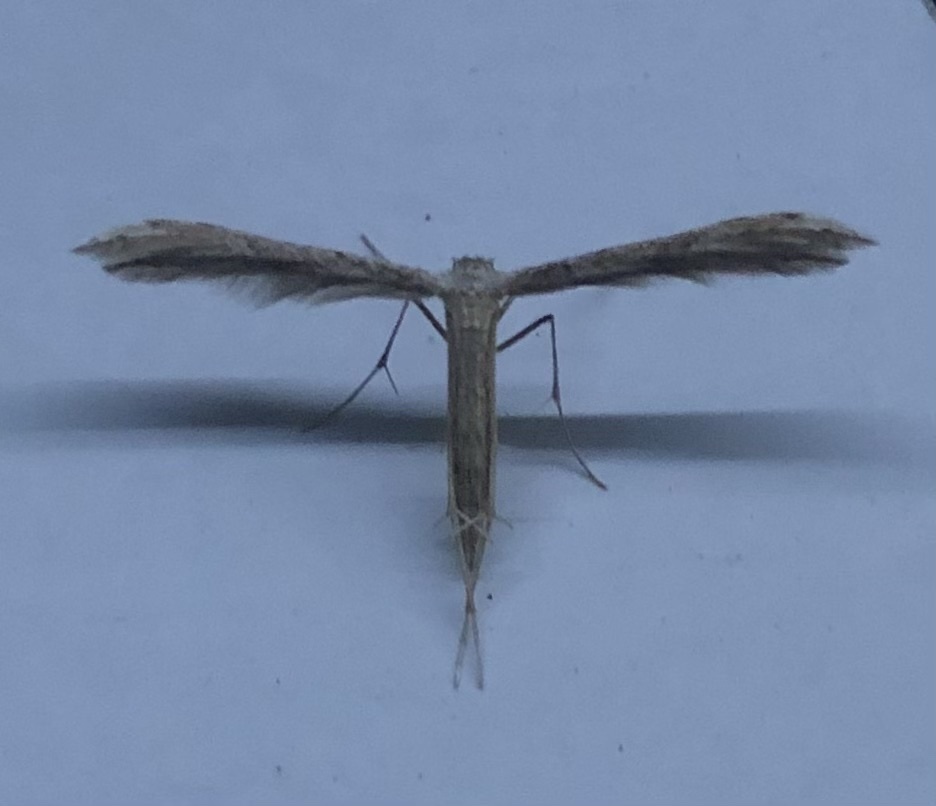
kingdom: Animalia
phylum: Arthropoda
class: Insecta
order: Lepidoptera
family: Pterophoridae
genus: Pselnophorus
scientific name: Pselnophorus belfragei
